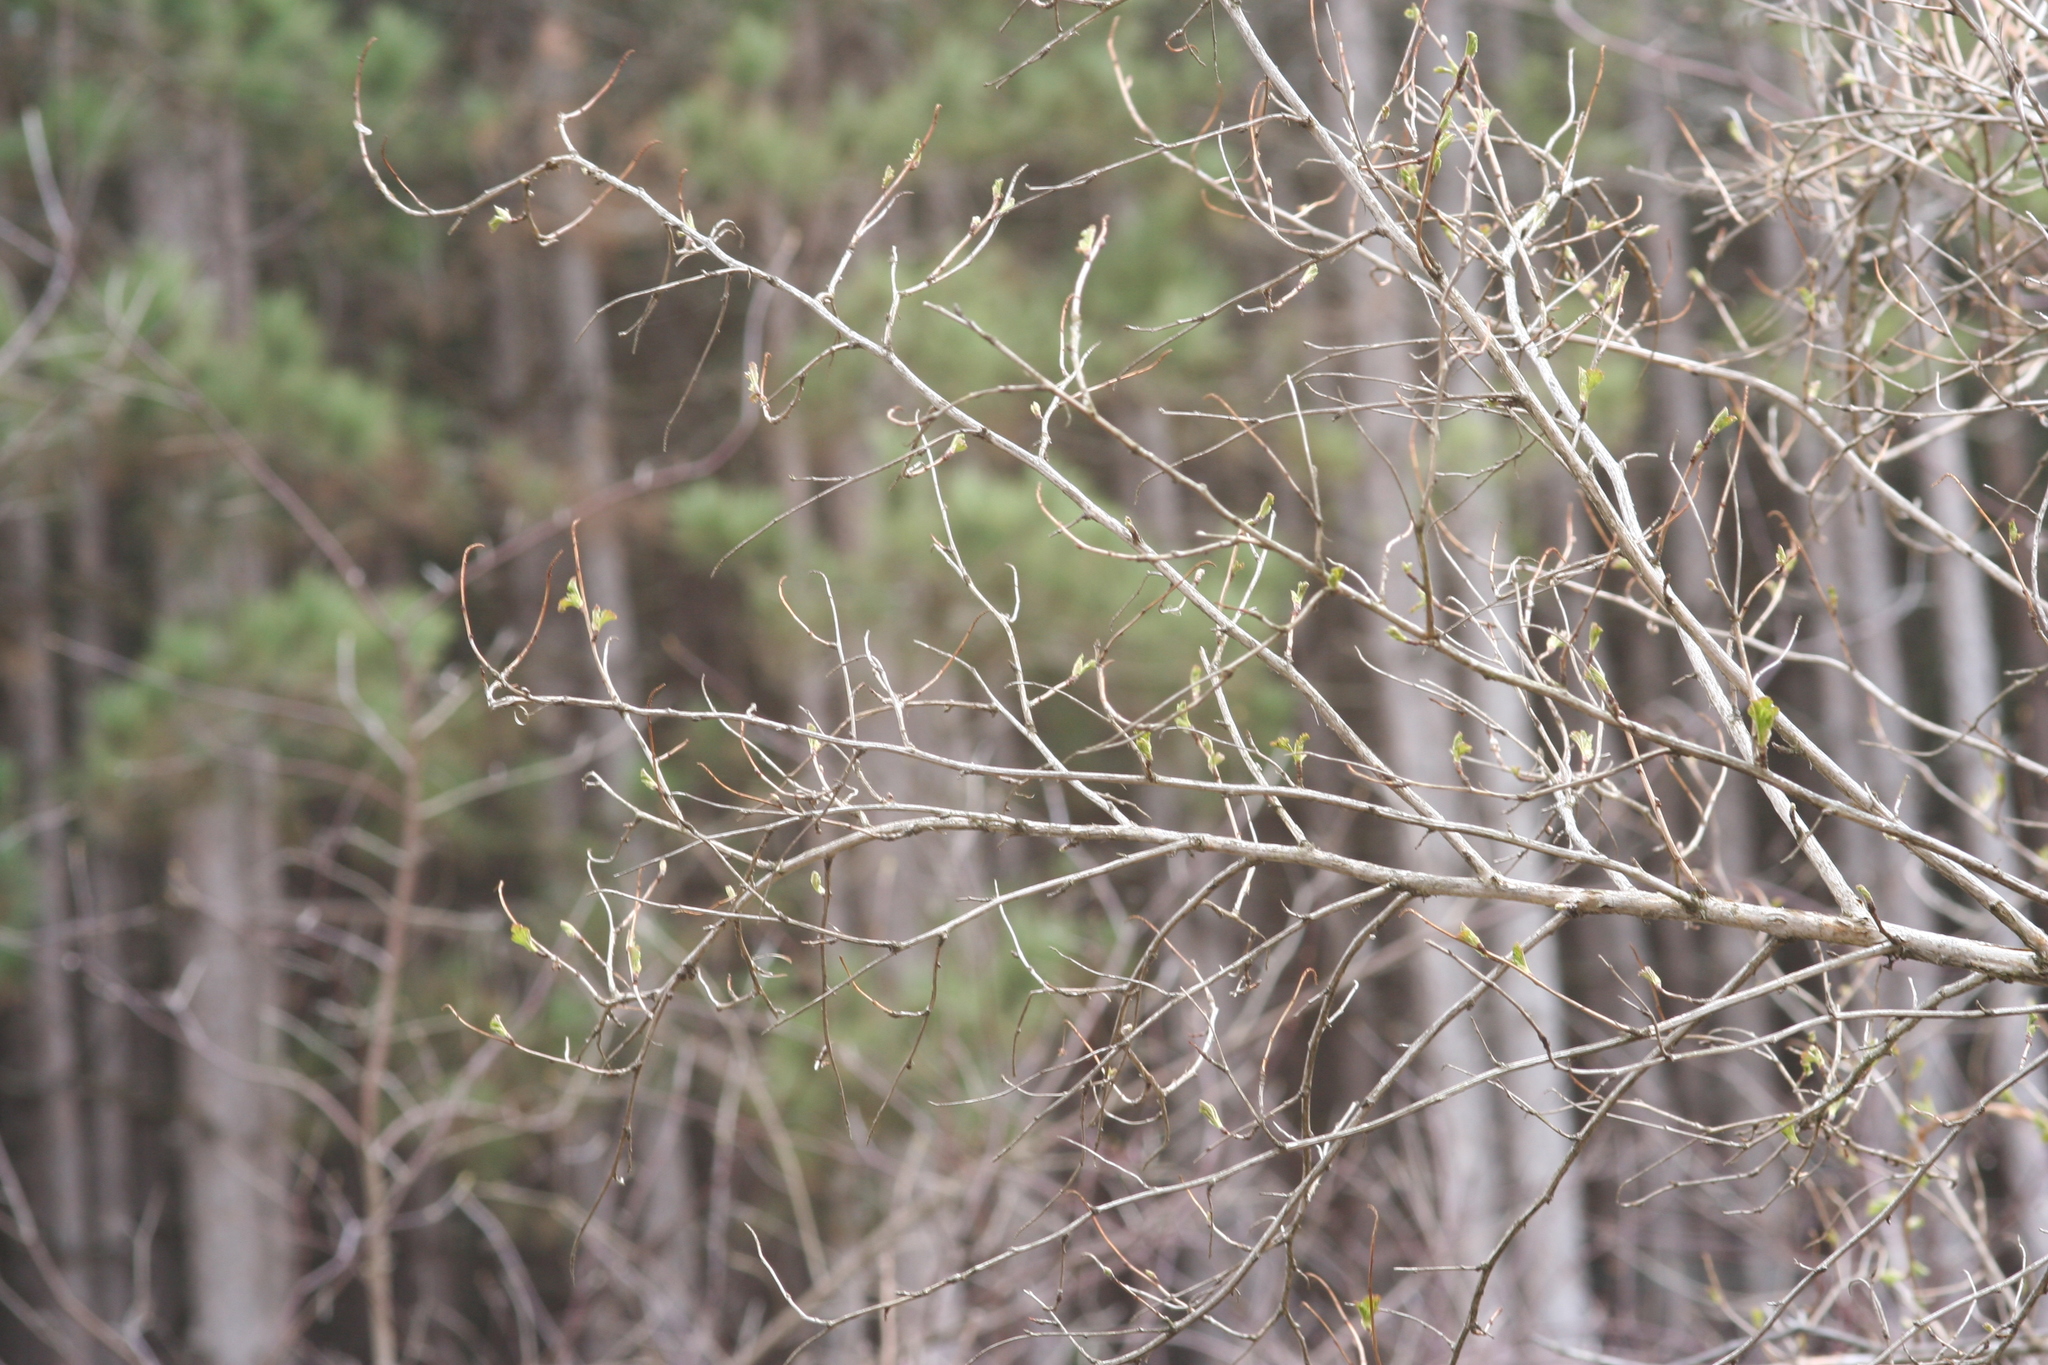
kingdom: Plantae
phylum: Tracheophyta
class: Magnoliopsida
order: Rosales
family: Rosaceae
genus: Physocarpus
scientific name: Physocarpus opulifolius
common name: Ninebark
